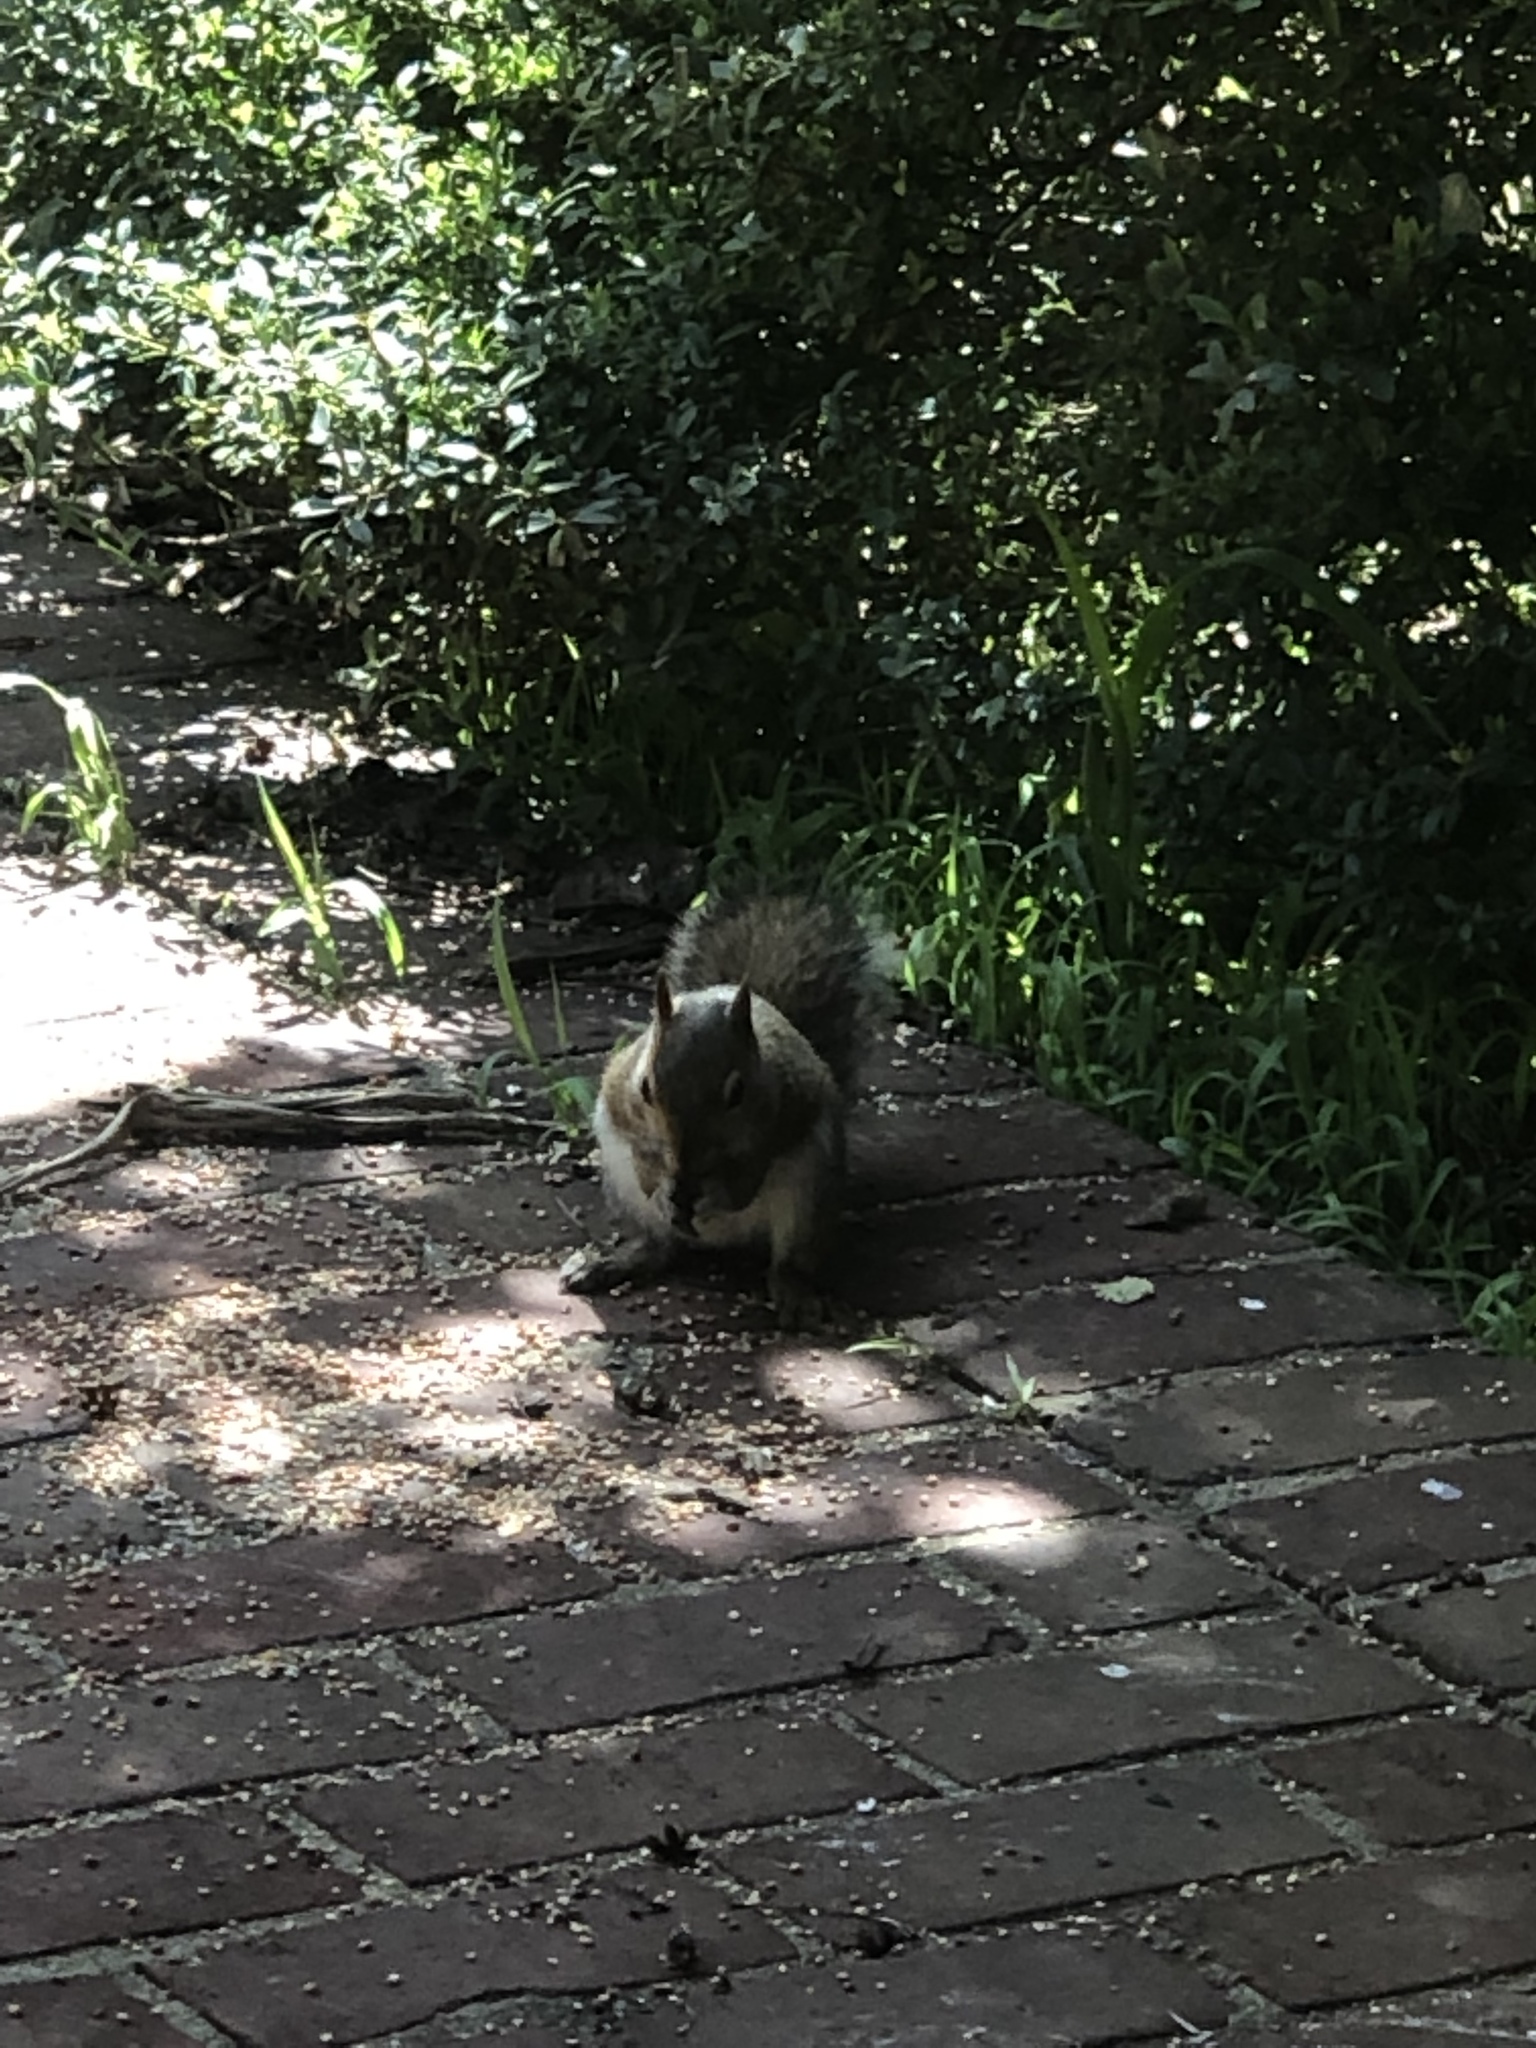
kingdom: Animalia
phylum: Chordata
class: Mammalia
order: Rodentia
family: Sciuridae
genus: Sciurus
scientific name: Sciurus carolinensis
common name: Eastern gray squirrel
